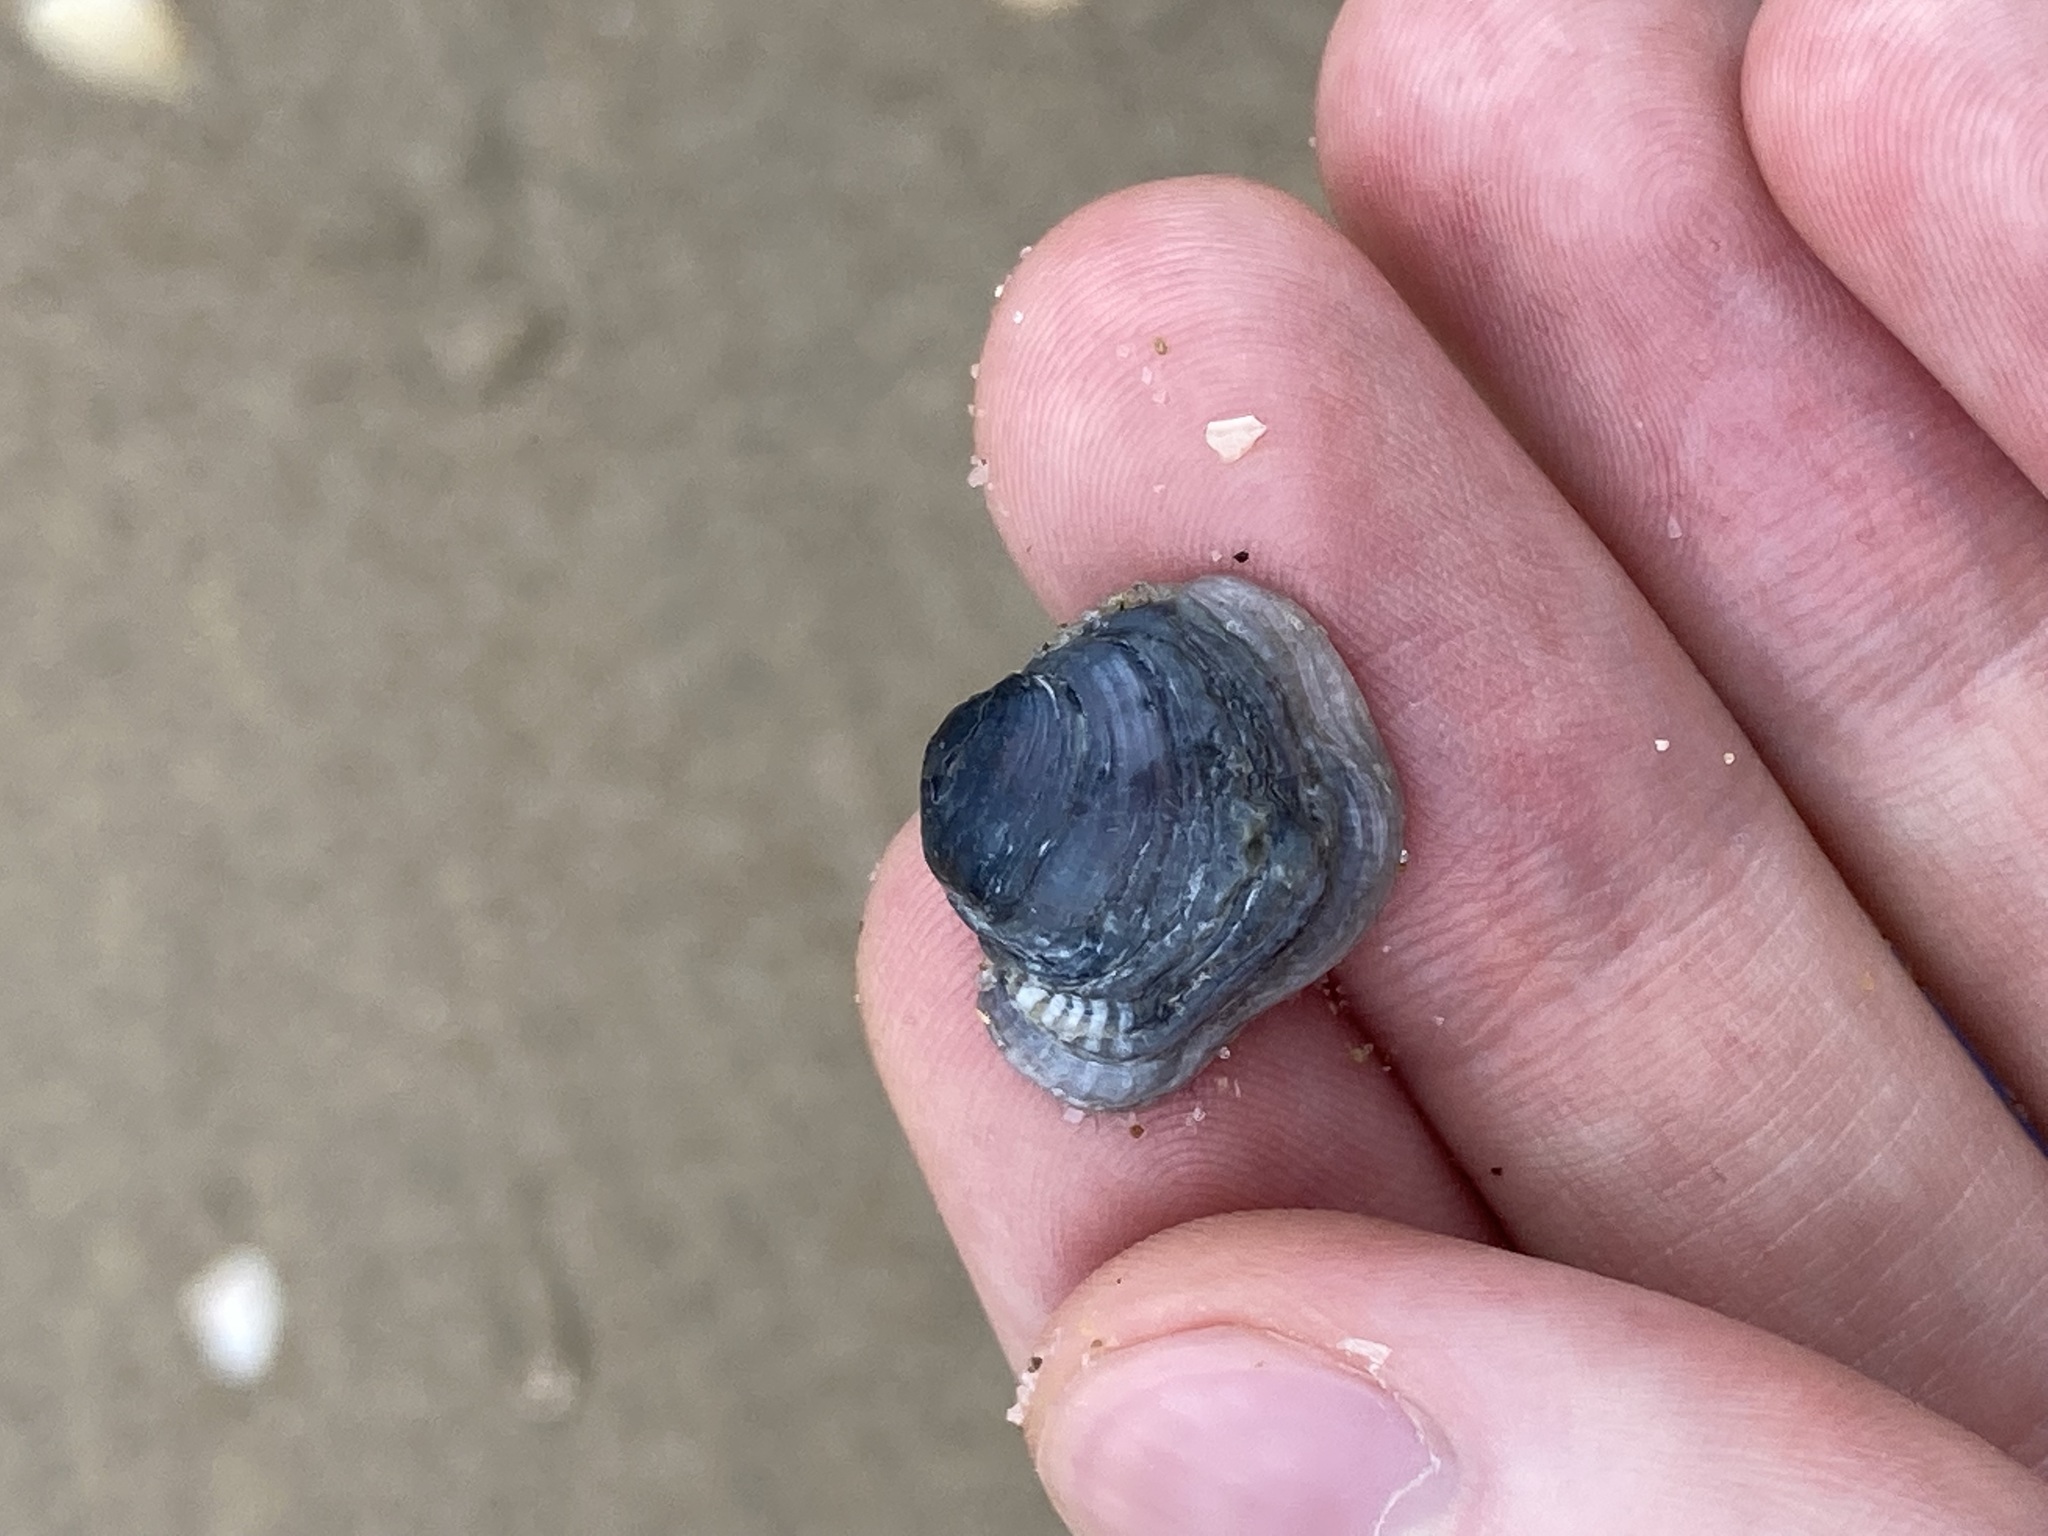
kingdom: Animalia
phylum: Mollusca
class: Bivalvia
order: Venerida
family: Veneridae
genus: Irus
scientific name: Irus cumingii
